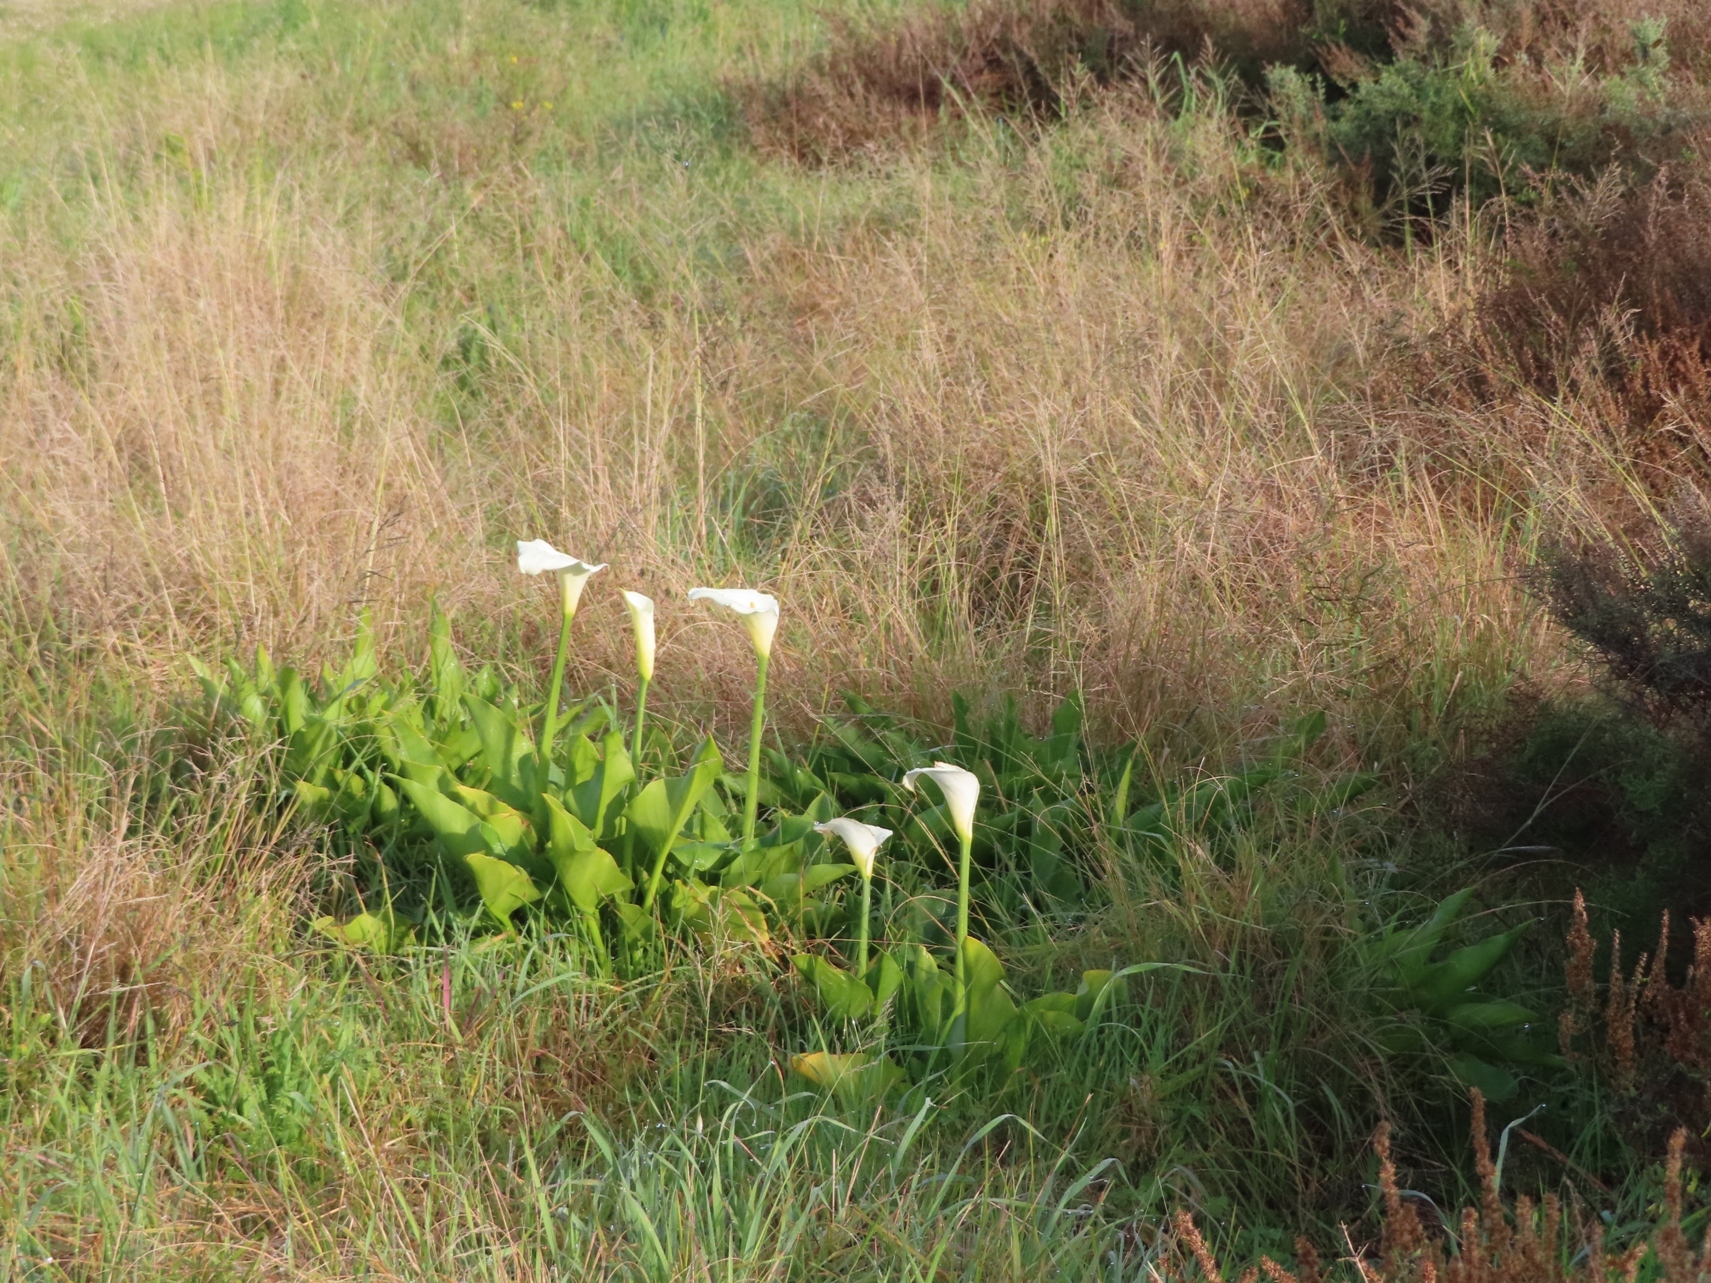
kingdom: Plantae
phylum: Tracheophyta
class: Liliopsida
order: Alismatales
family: Araceae
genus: Zantedeschia
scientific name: Zantedeschia aethiopica
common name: Altar-lily
